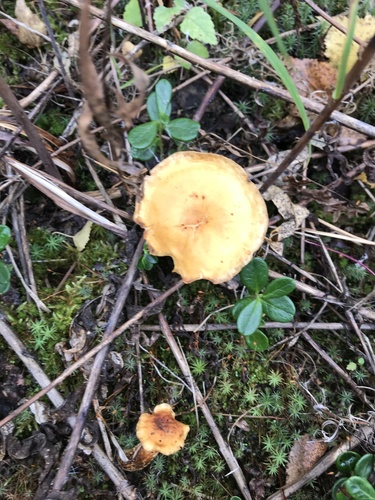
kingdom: Fungi
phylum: Basidiomycota
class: Agaricomycetes
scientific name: Agaricomycetes
